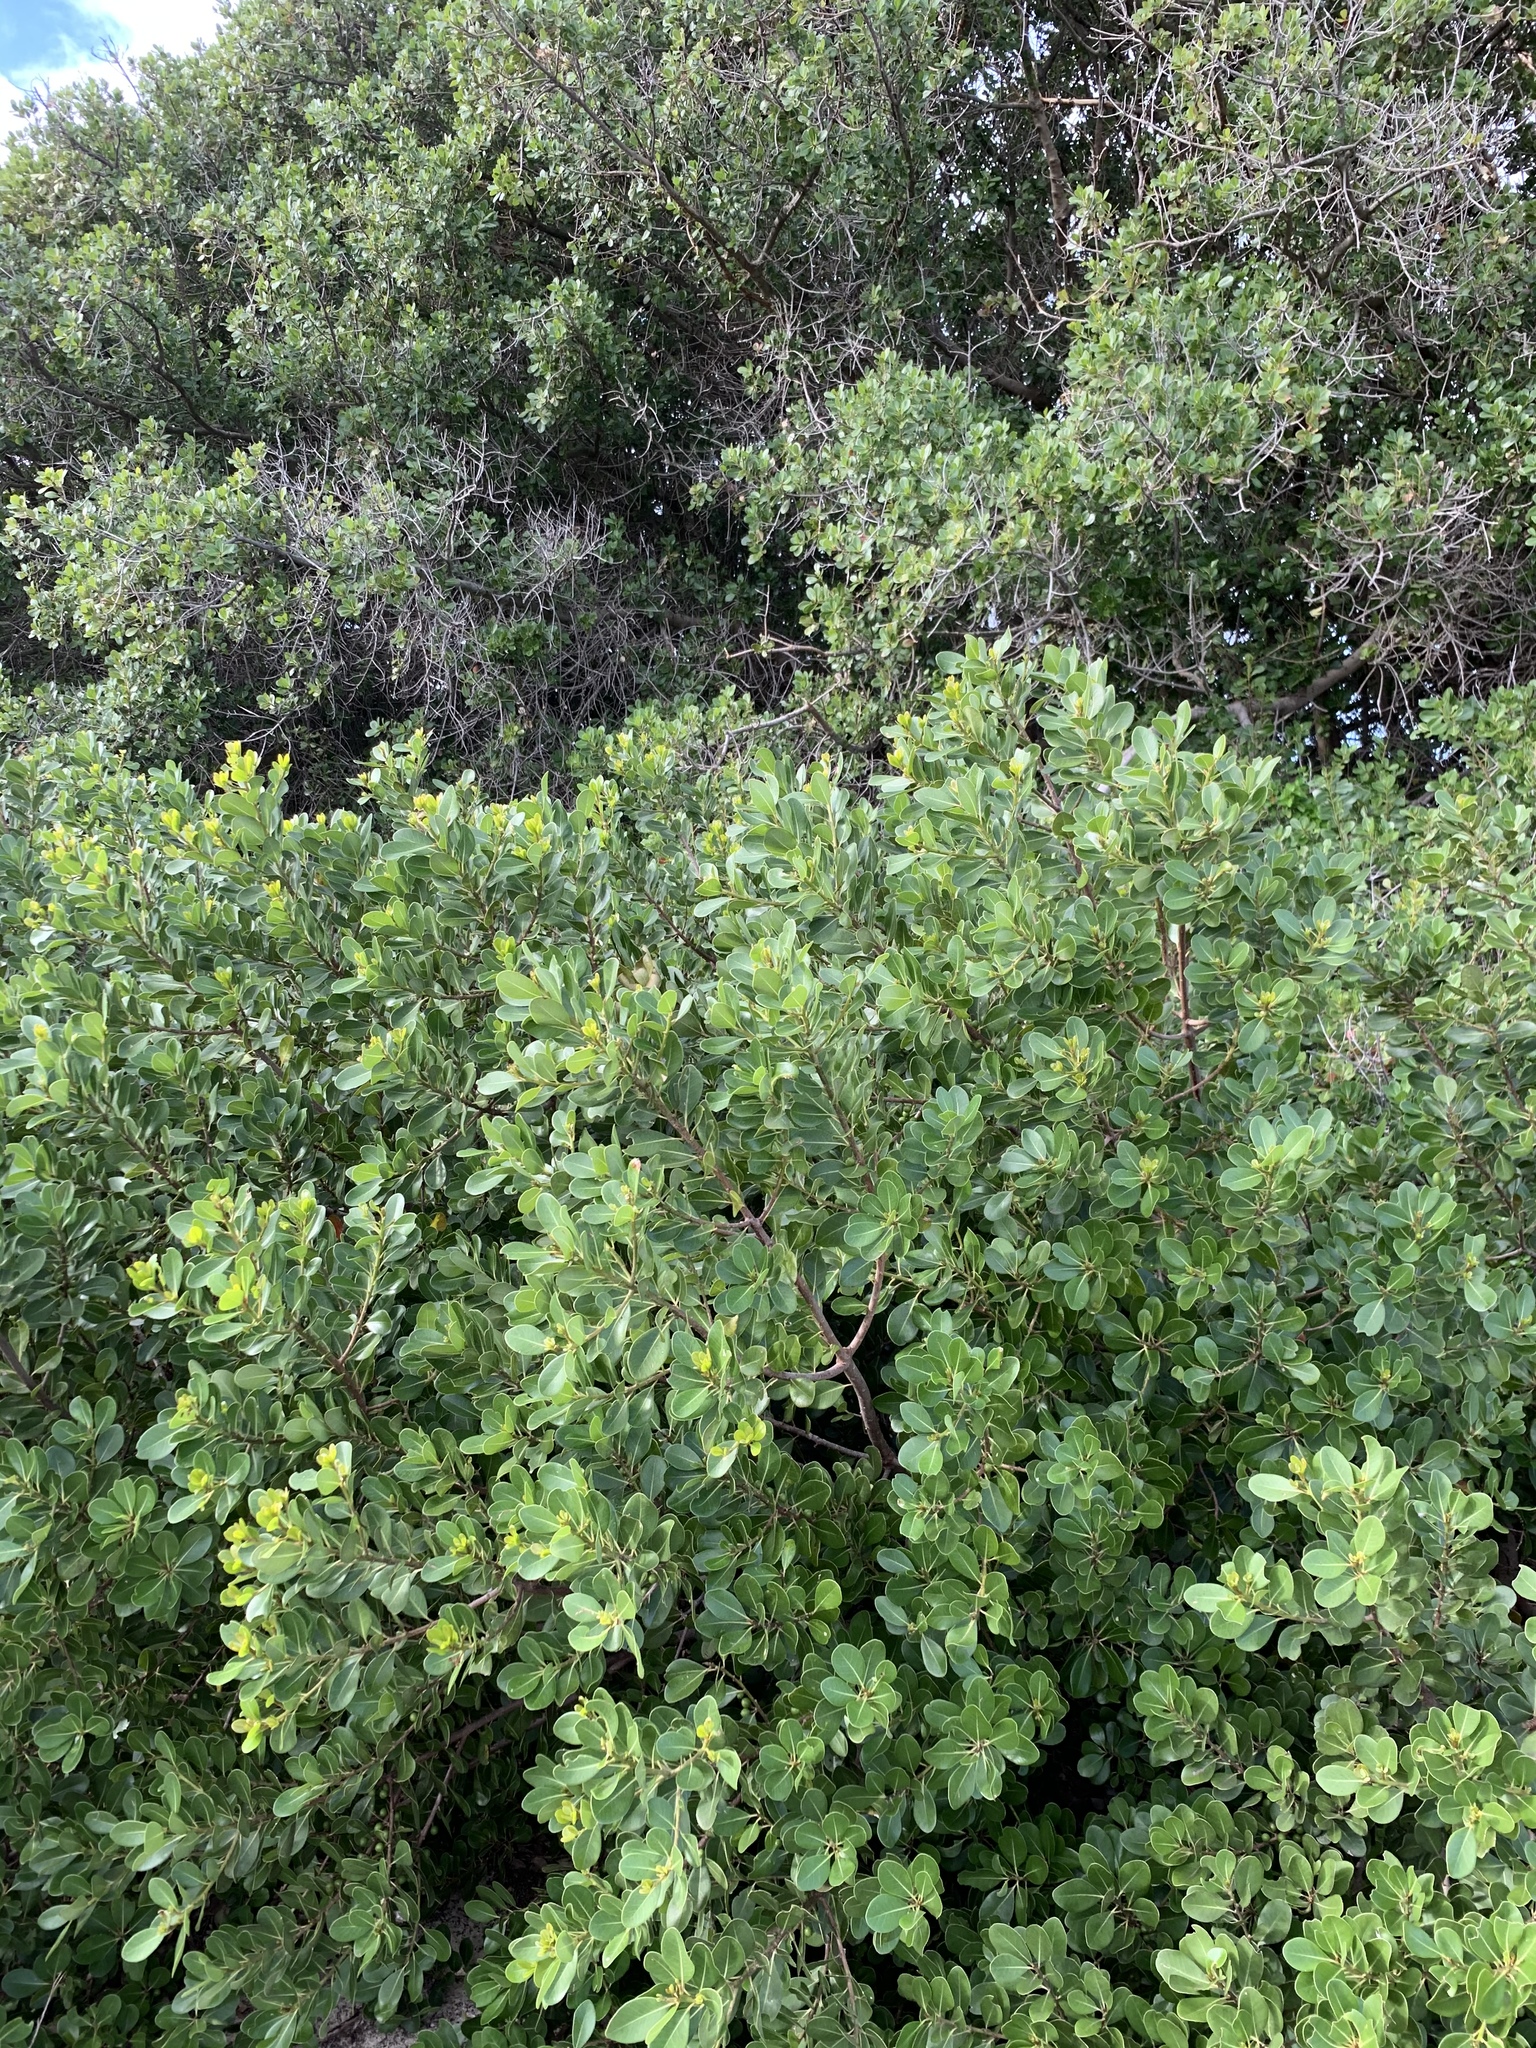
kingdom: Plantae
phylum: Tracheophyta
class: Magnoliopsida
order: Ericales
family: Sapotaceae
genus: Sideroxylon
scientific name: Sideroxylon inerme
